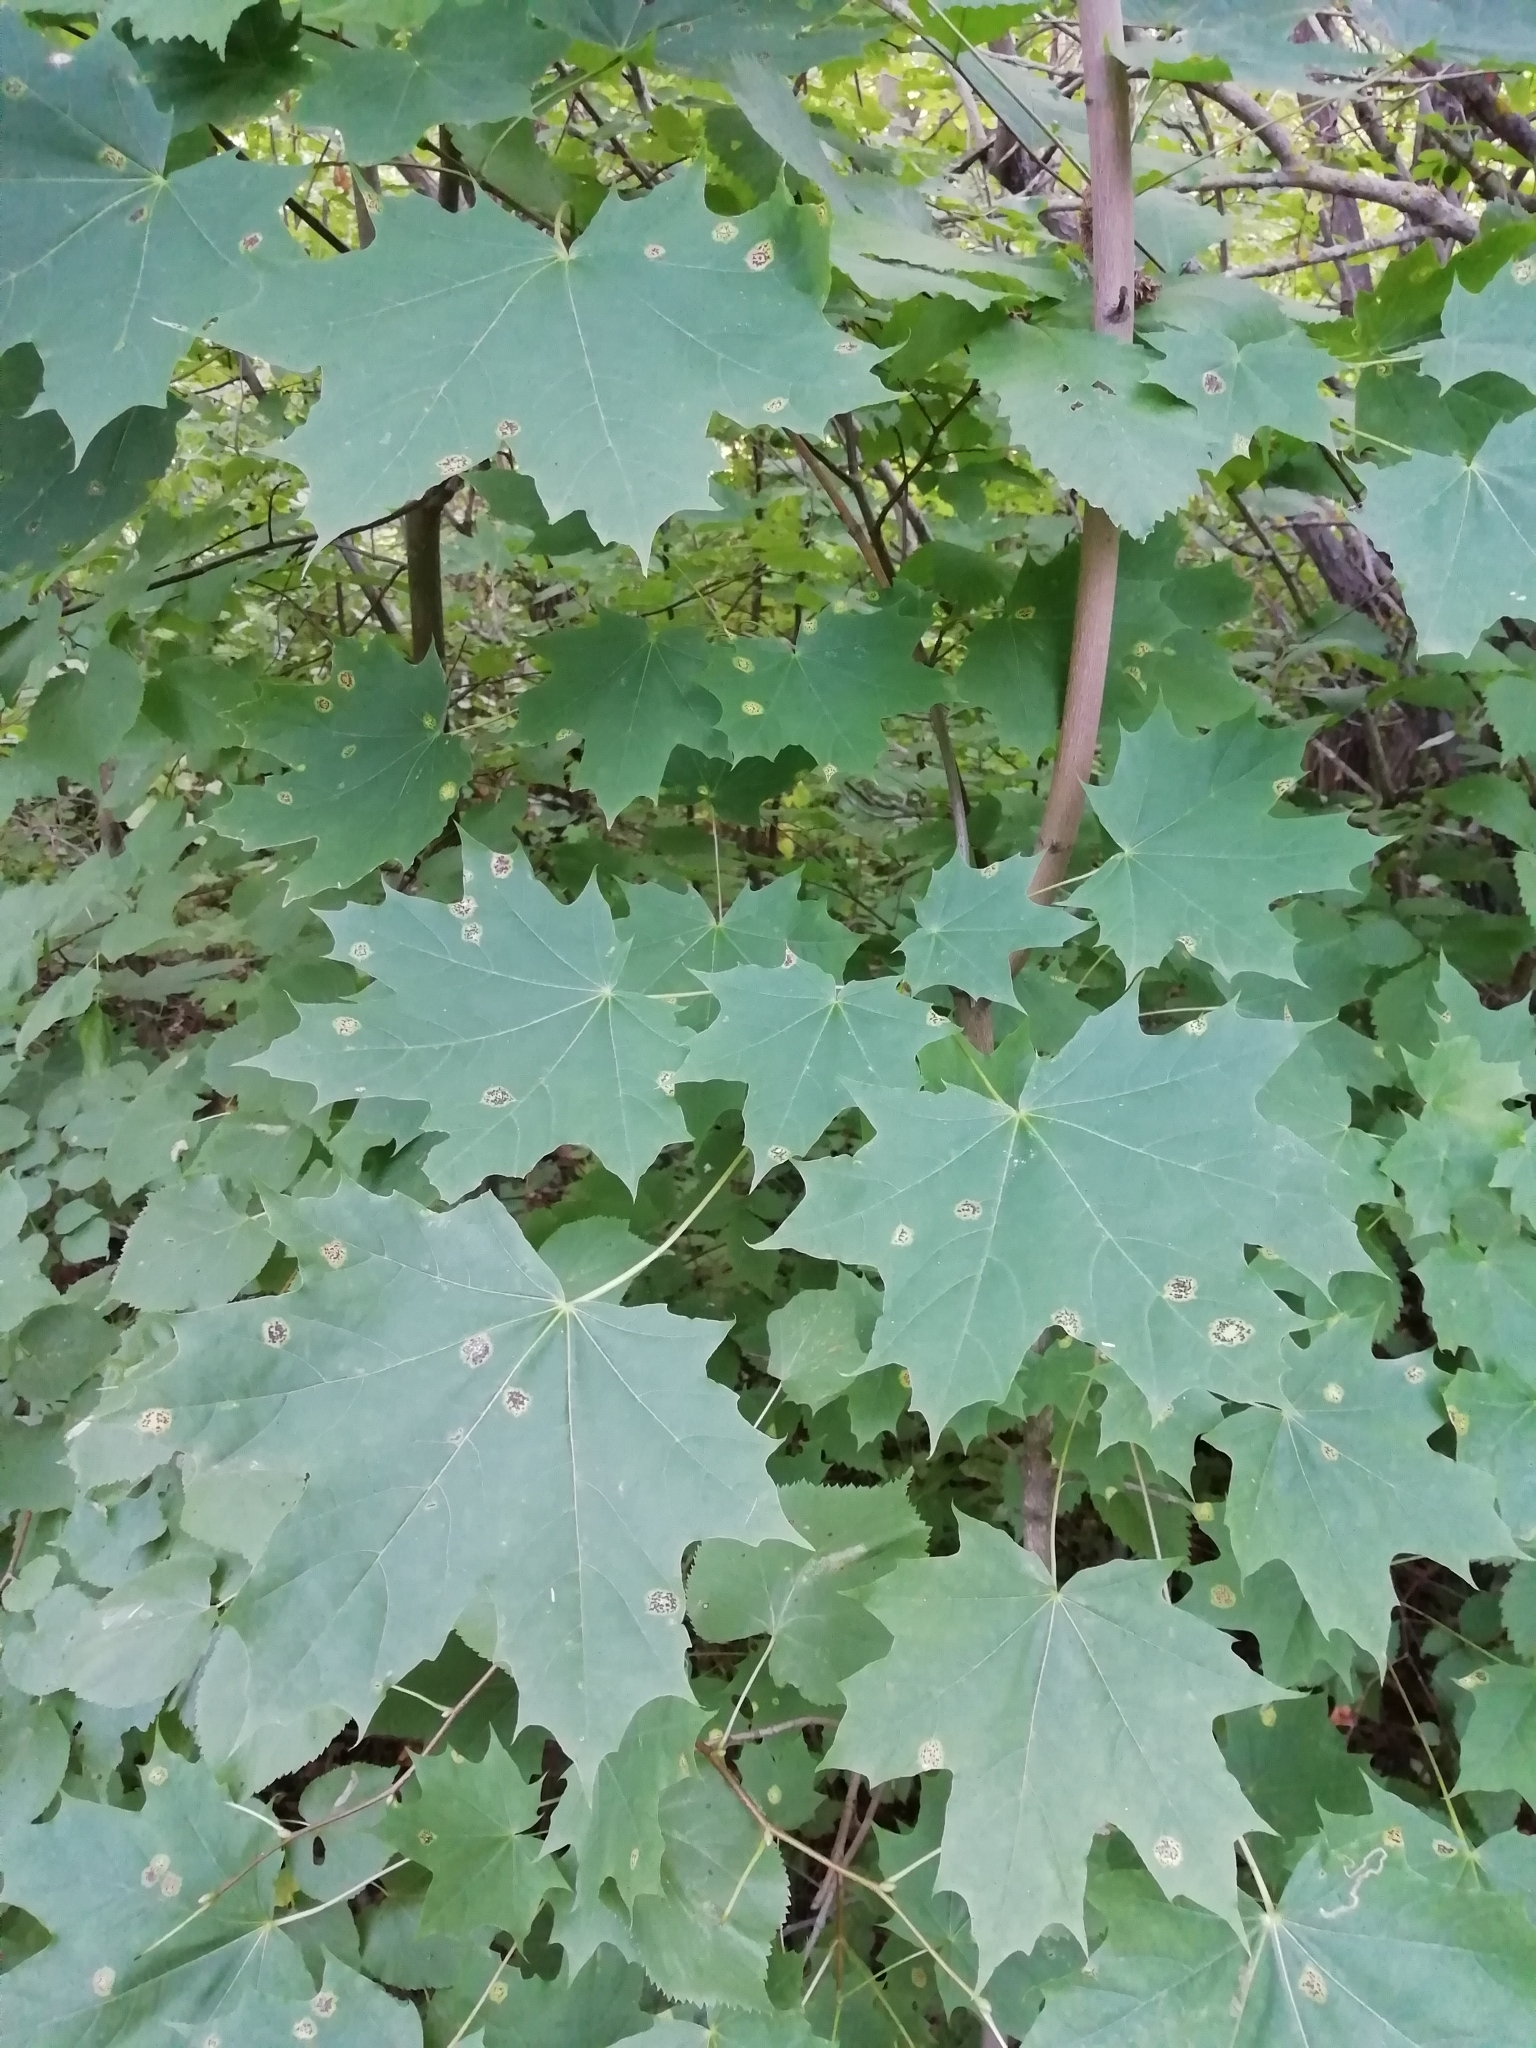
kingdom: Plantae
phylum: Tracheophyta
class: Magnoliopsida
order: Sapindales
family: Sapindaceae
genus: Acer
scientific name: Acer platanoides
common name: Norway maple
